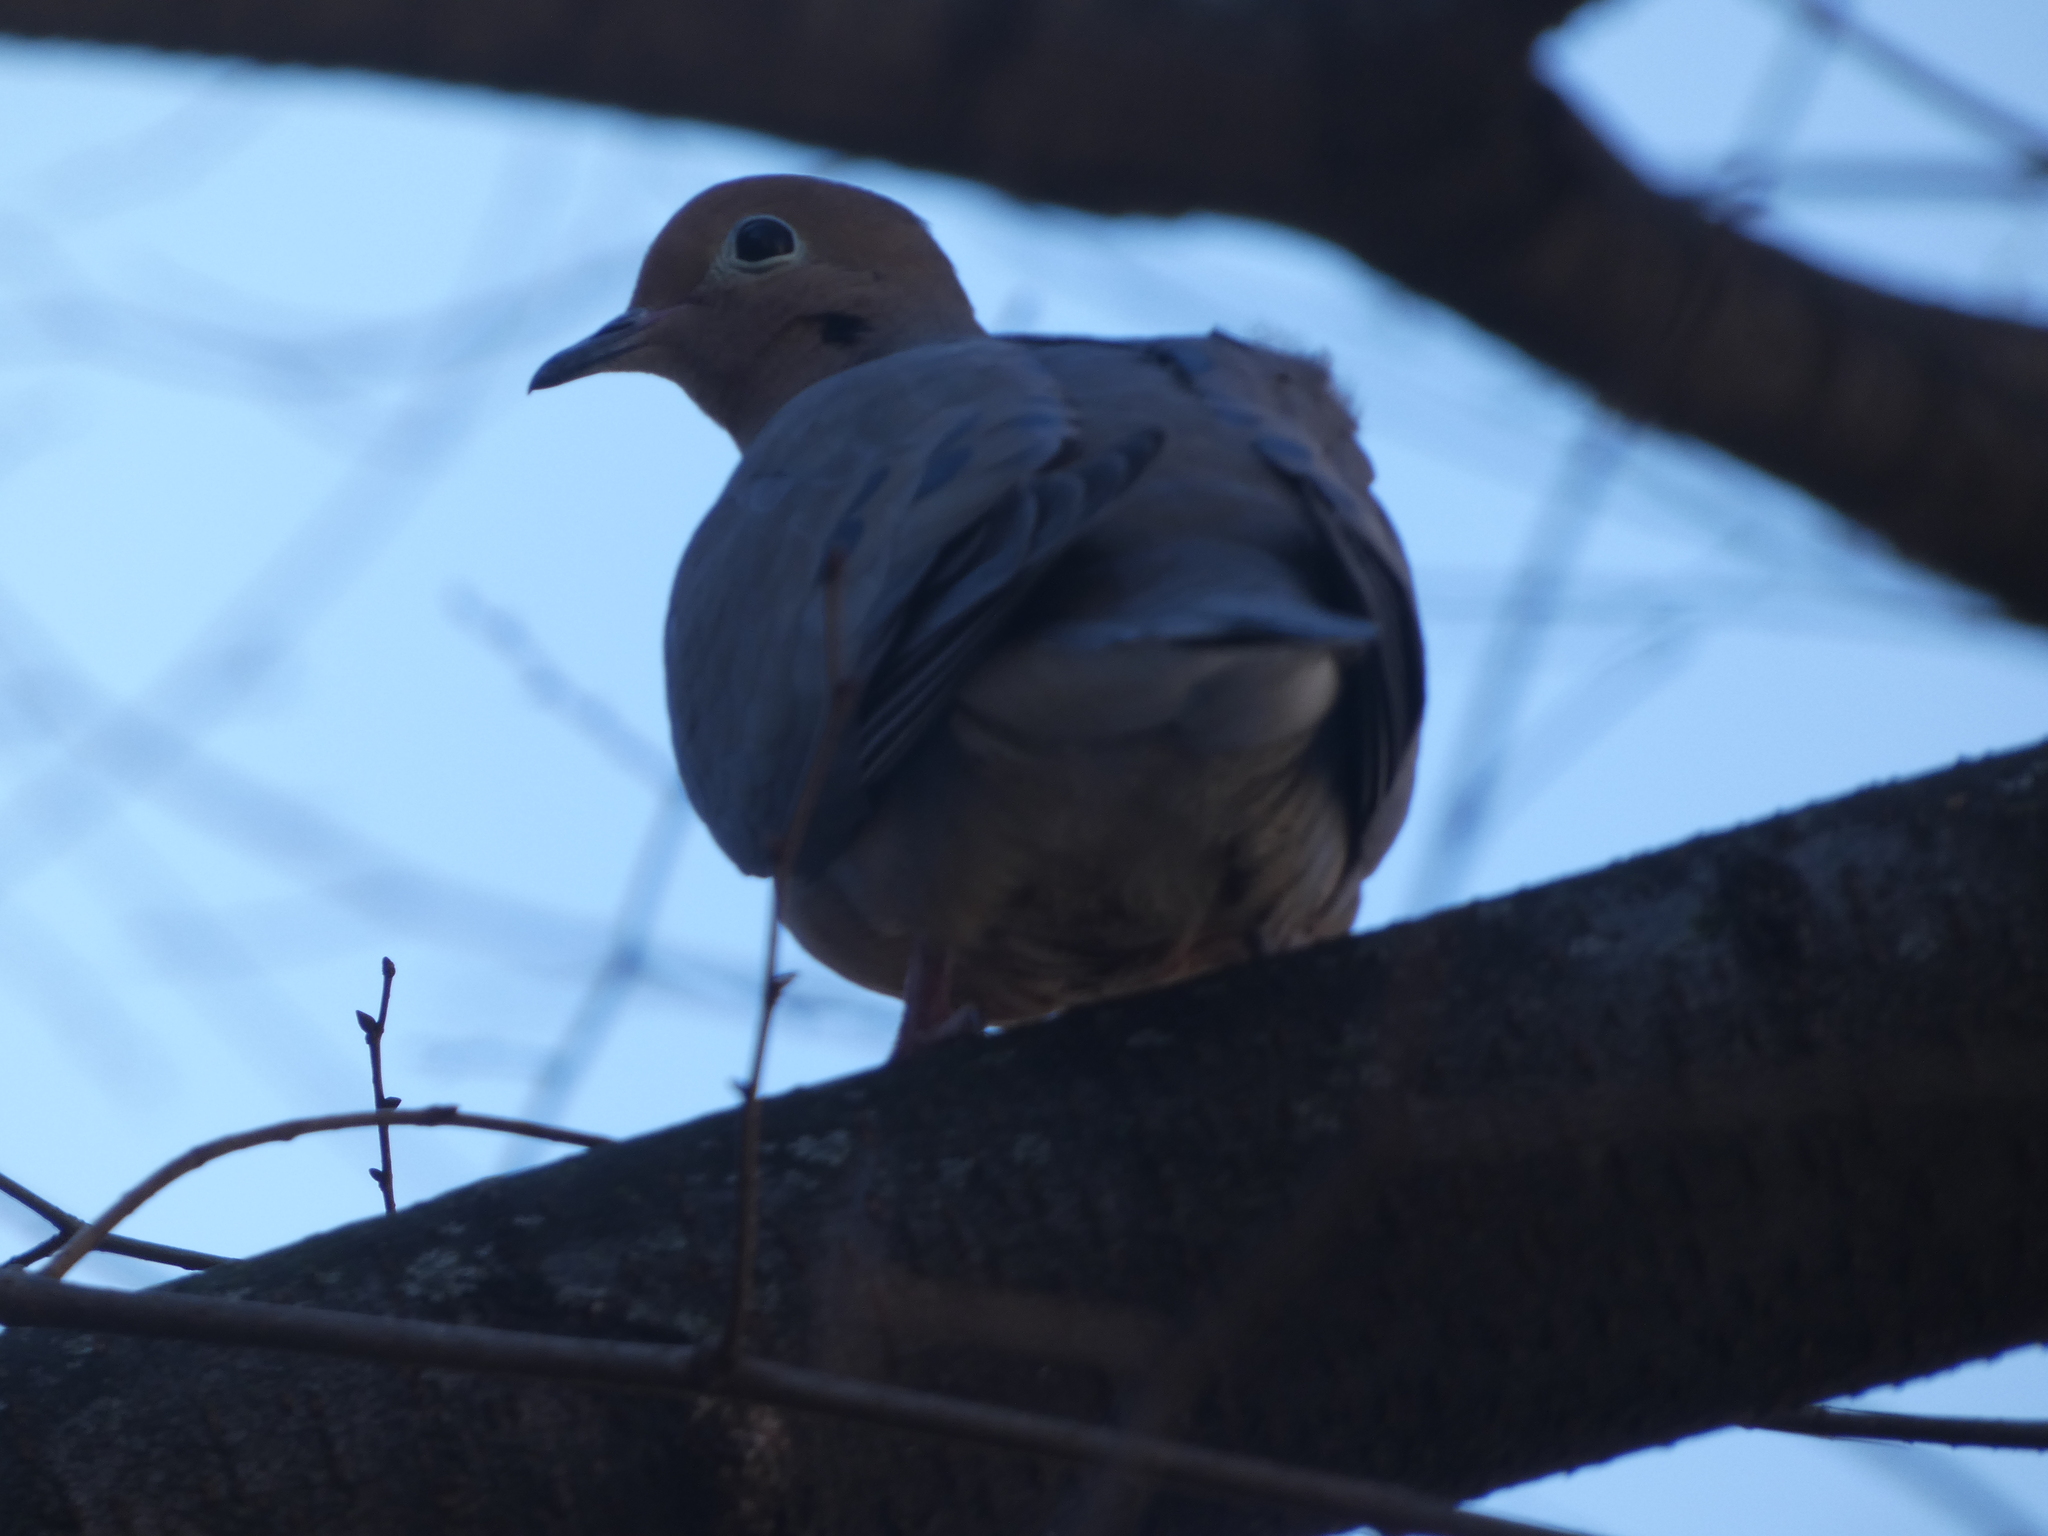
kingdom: Animalia
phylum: Chordata
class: Aves
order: Columbiformes
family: Columbidae
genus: Zenaida
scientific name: Zenaida macroura
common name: Mourning dove
